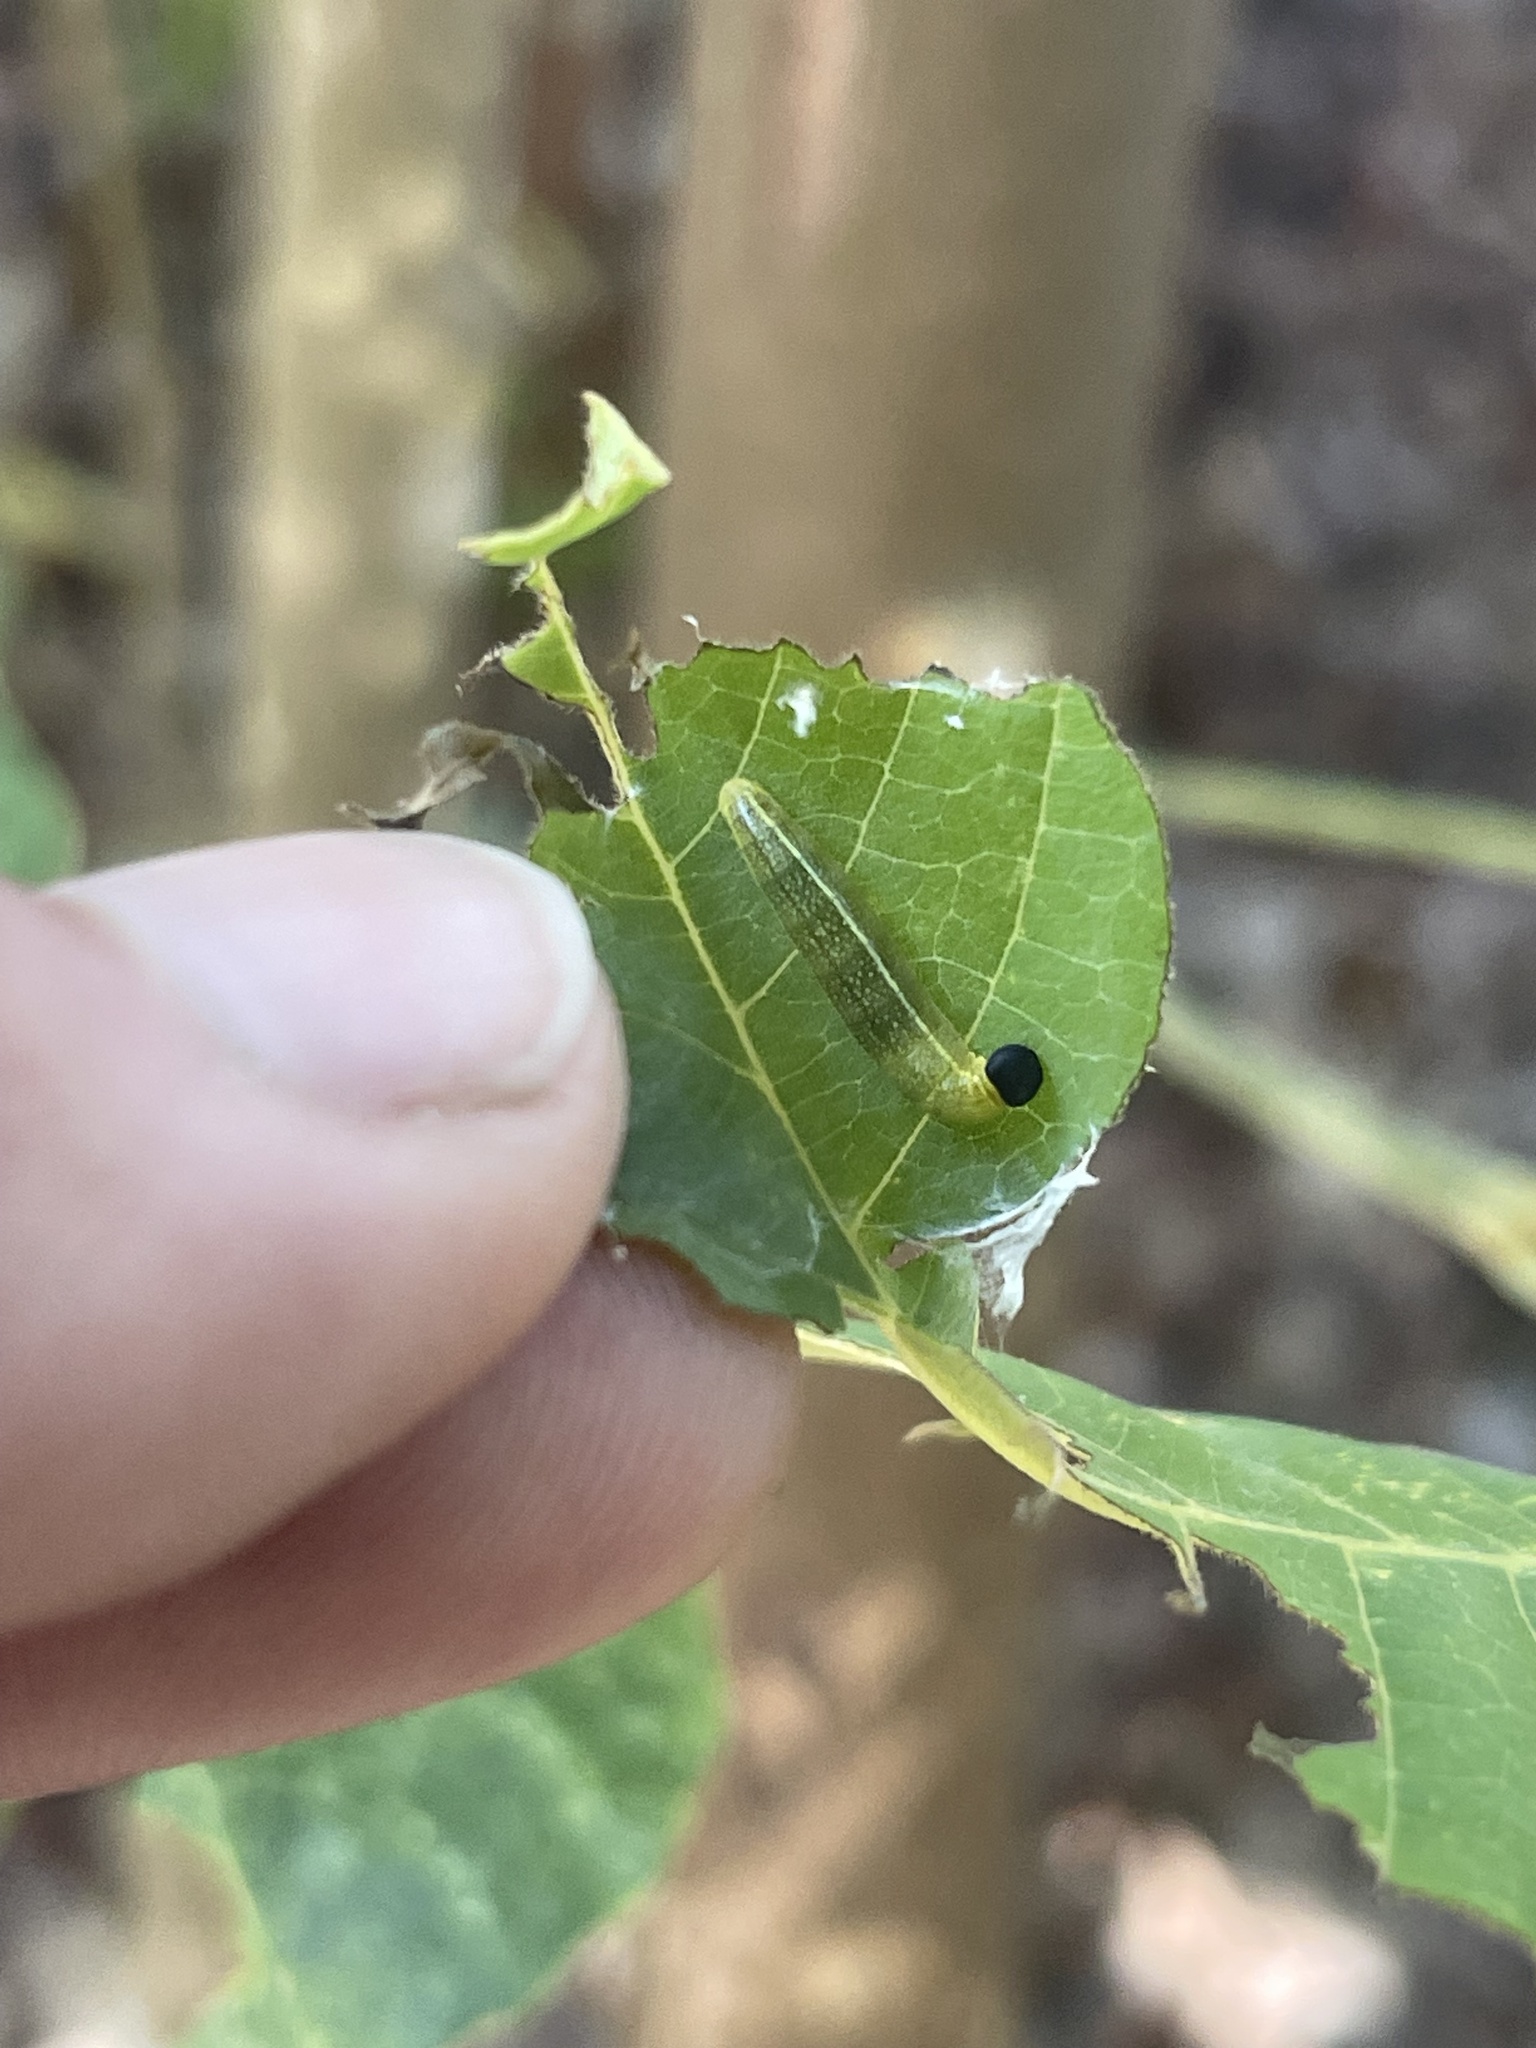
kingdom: Animalia
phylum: Arthropoda
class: Insecta
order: Lepidoptera
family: Hesperiidae
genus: Polygonus
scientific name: Polygonus leo
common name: Hammoch skipper
